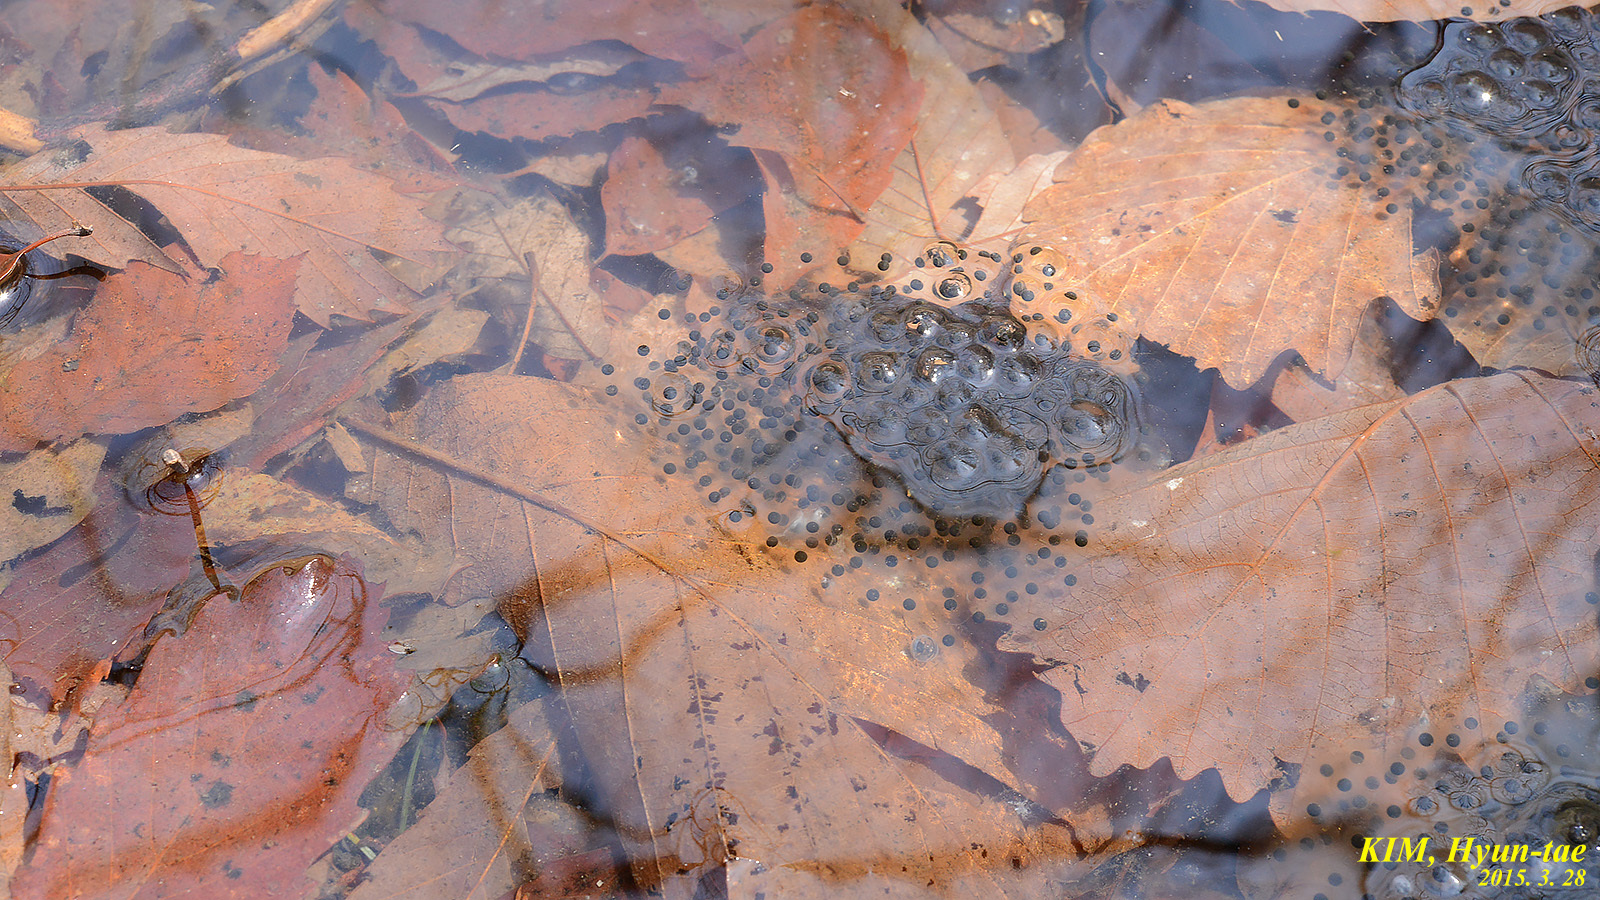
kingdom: Animalia
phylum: Chordata
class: Amphibia
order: Anura
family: Ranidae
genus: Rana
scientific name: Rana huanrenensis
